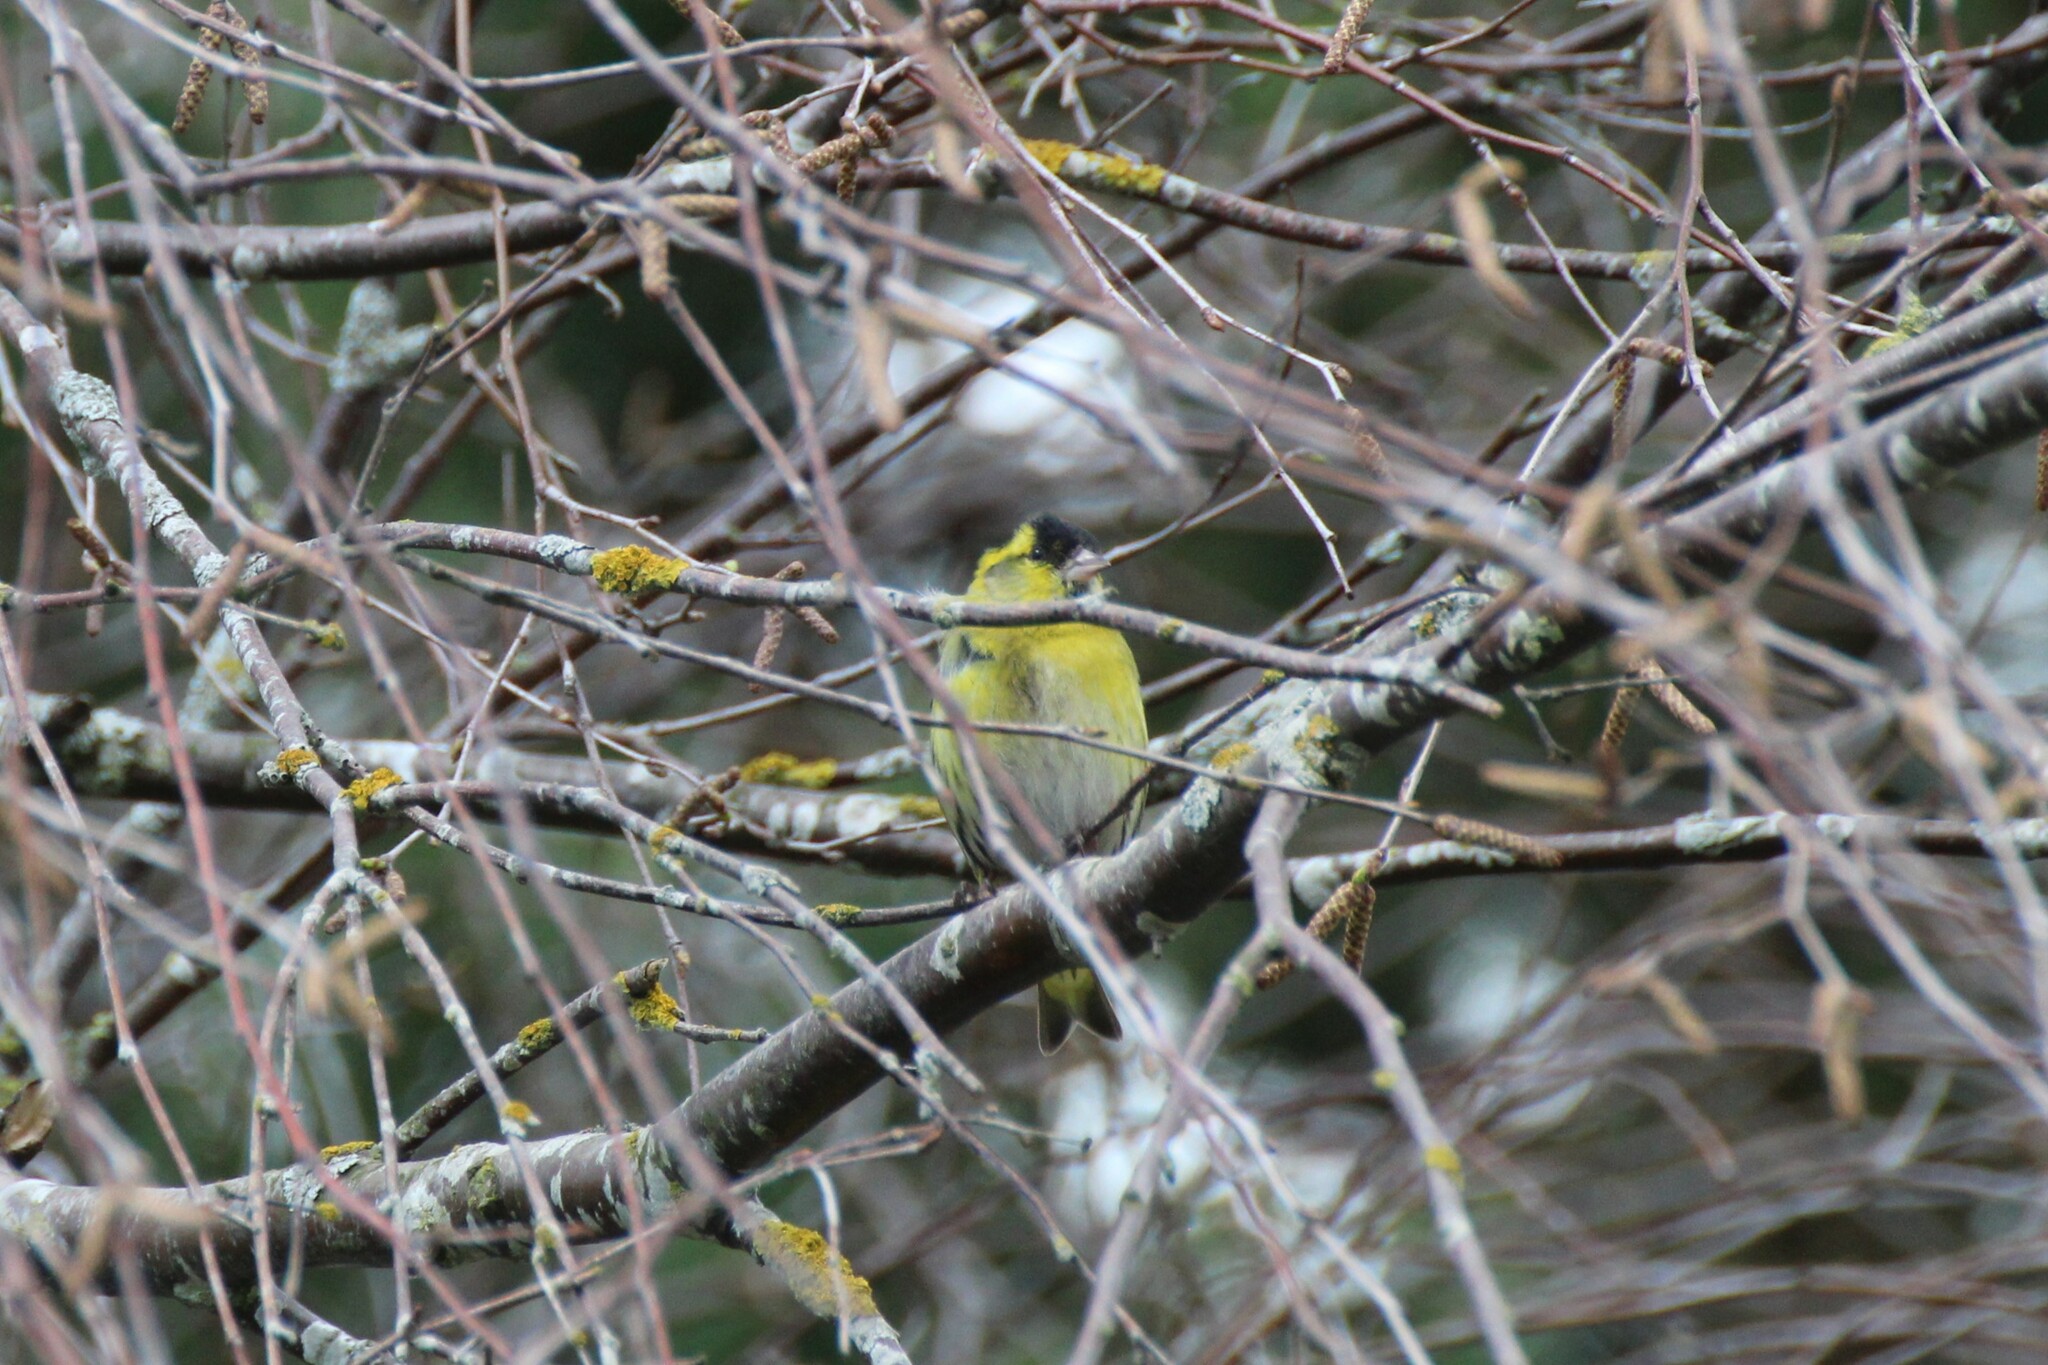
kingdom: Animalia
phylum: Chordata
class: Aves
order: Passeriformes
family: Fringillidae
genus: Spinus
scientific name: Spinus spinus
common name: Eurasian siskin
